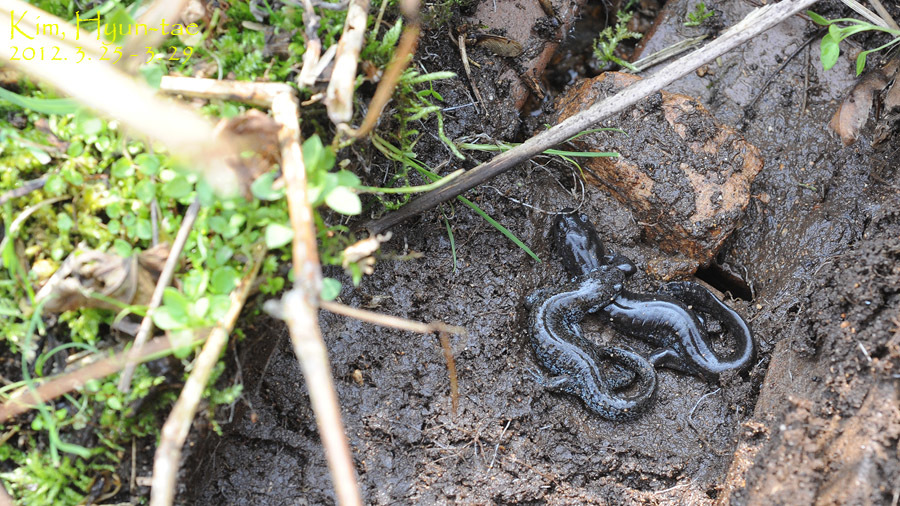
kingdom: Animalia
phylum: Chordata
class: Amphibia
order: Caudata
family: Hynobiidae
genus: Hynobius
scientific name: Hynobius quelpaertensis
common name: Cheju salamander
